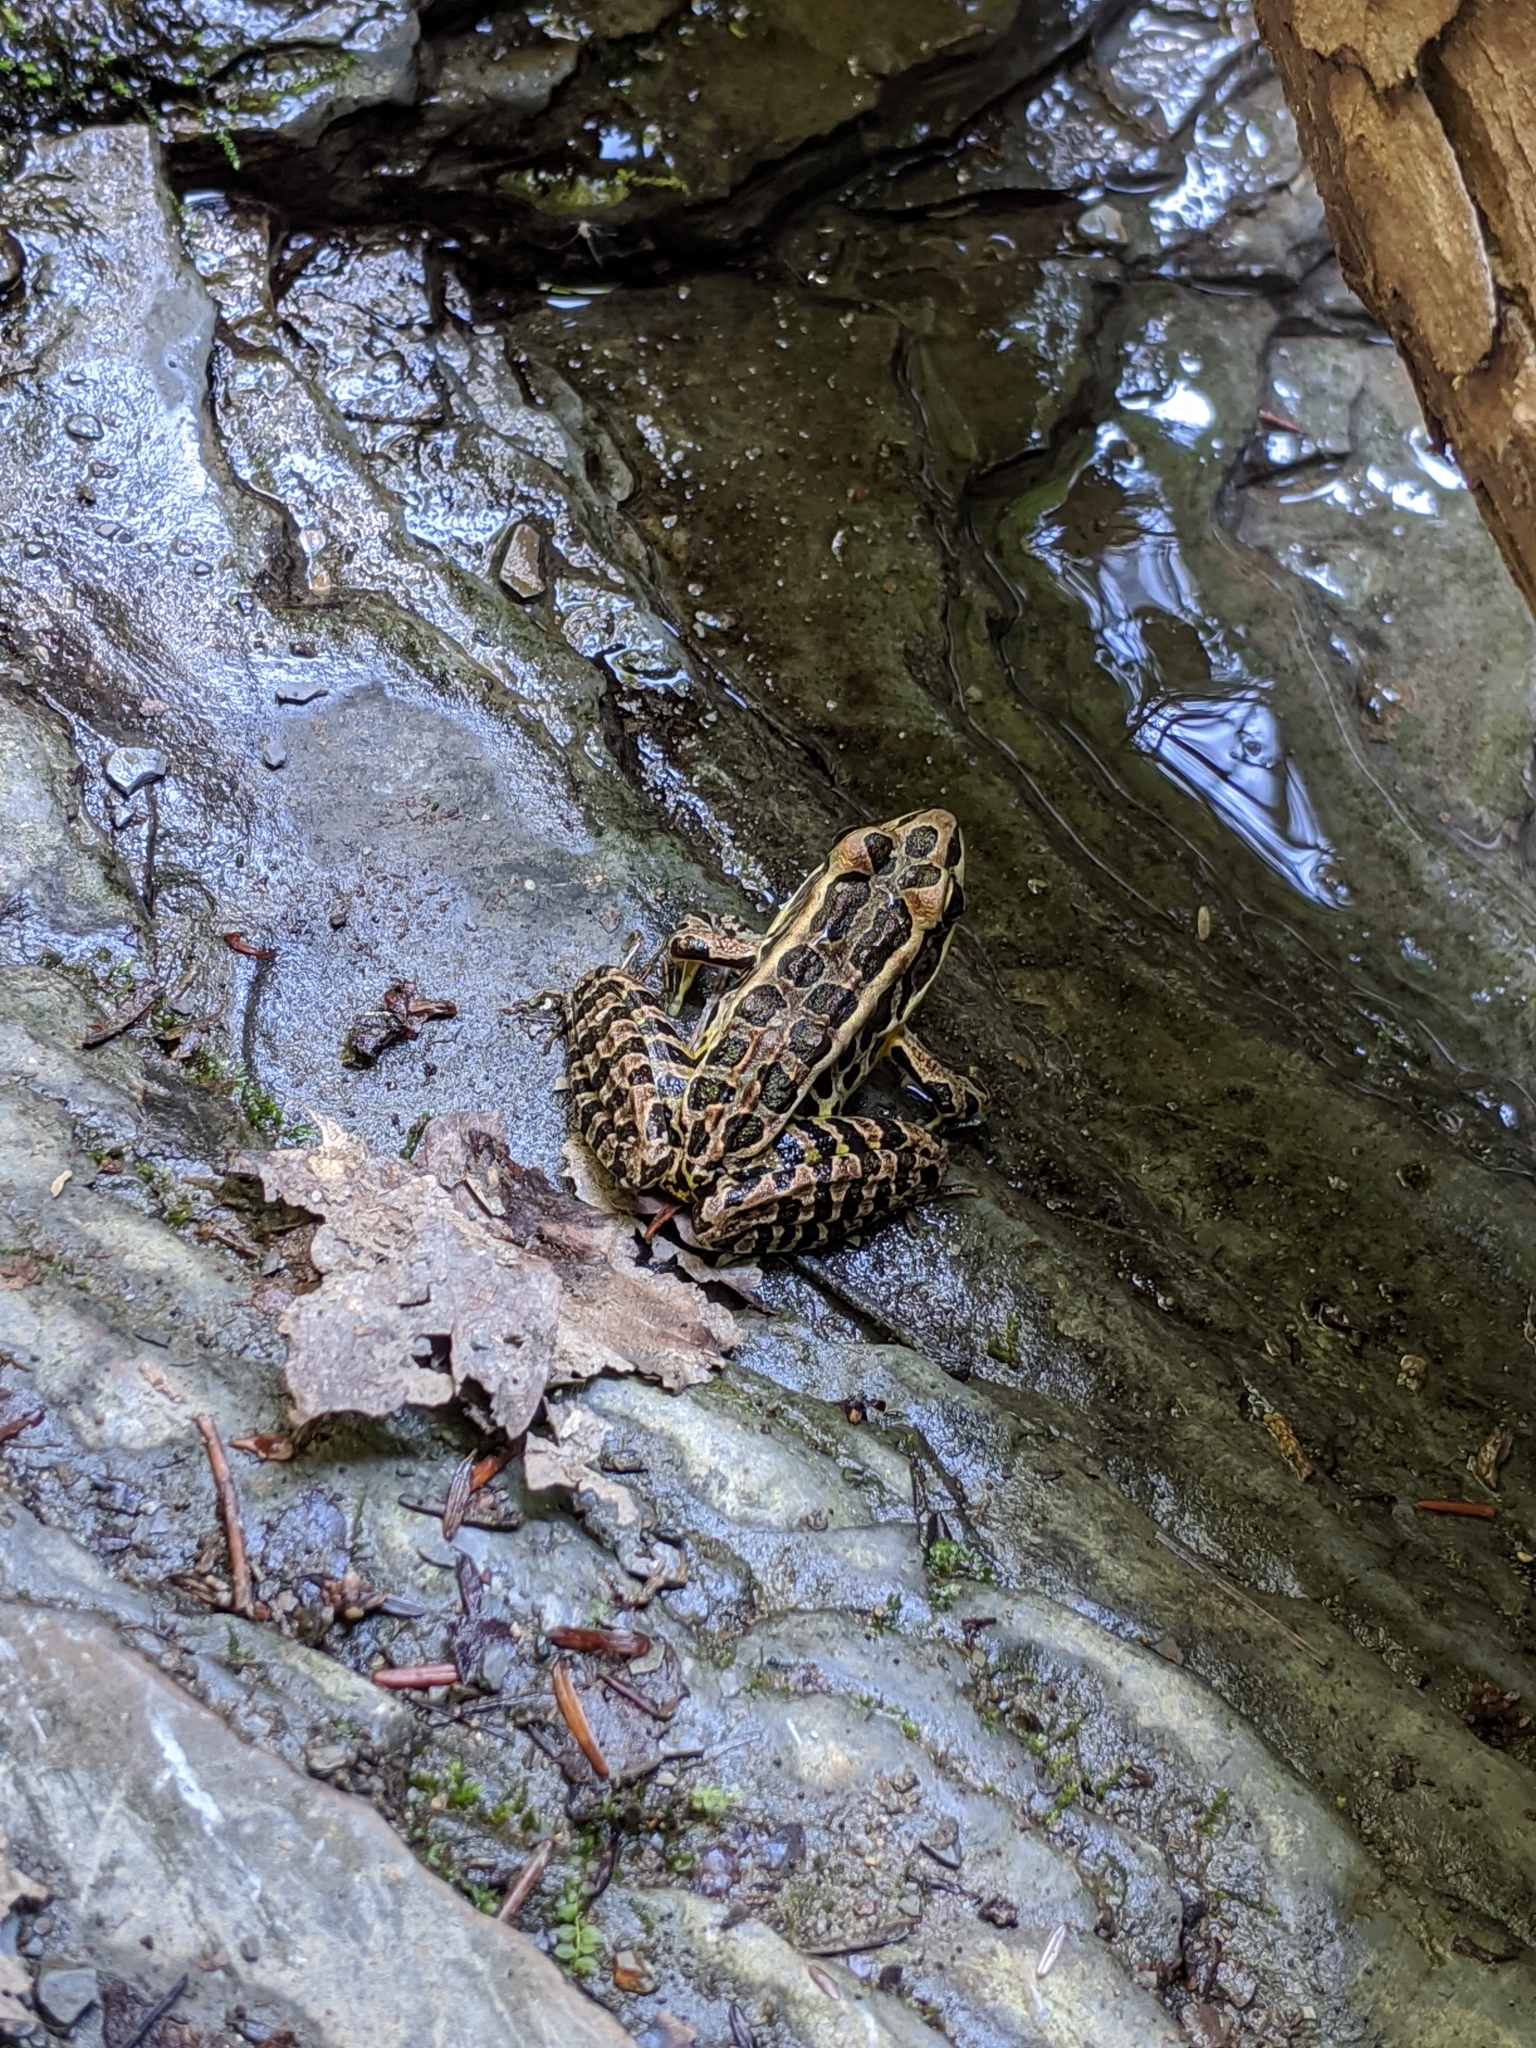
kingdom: Animalia
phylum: Chordata
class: Amphibia
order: Anura
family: Ranidae
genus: Lithobates
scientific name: Lithobates palustris
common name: Pickerel frog
